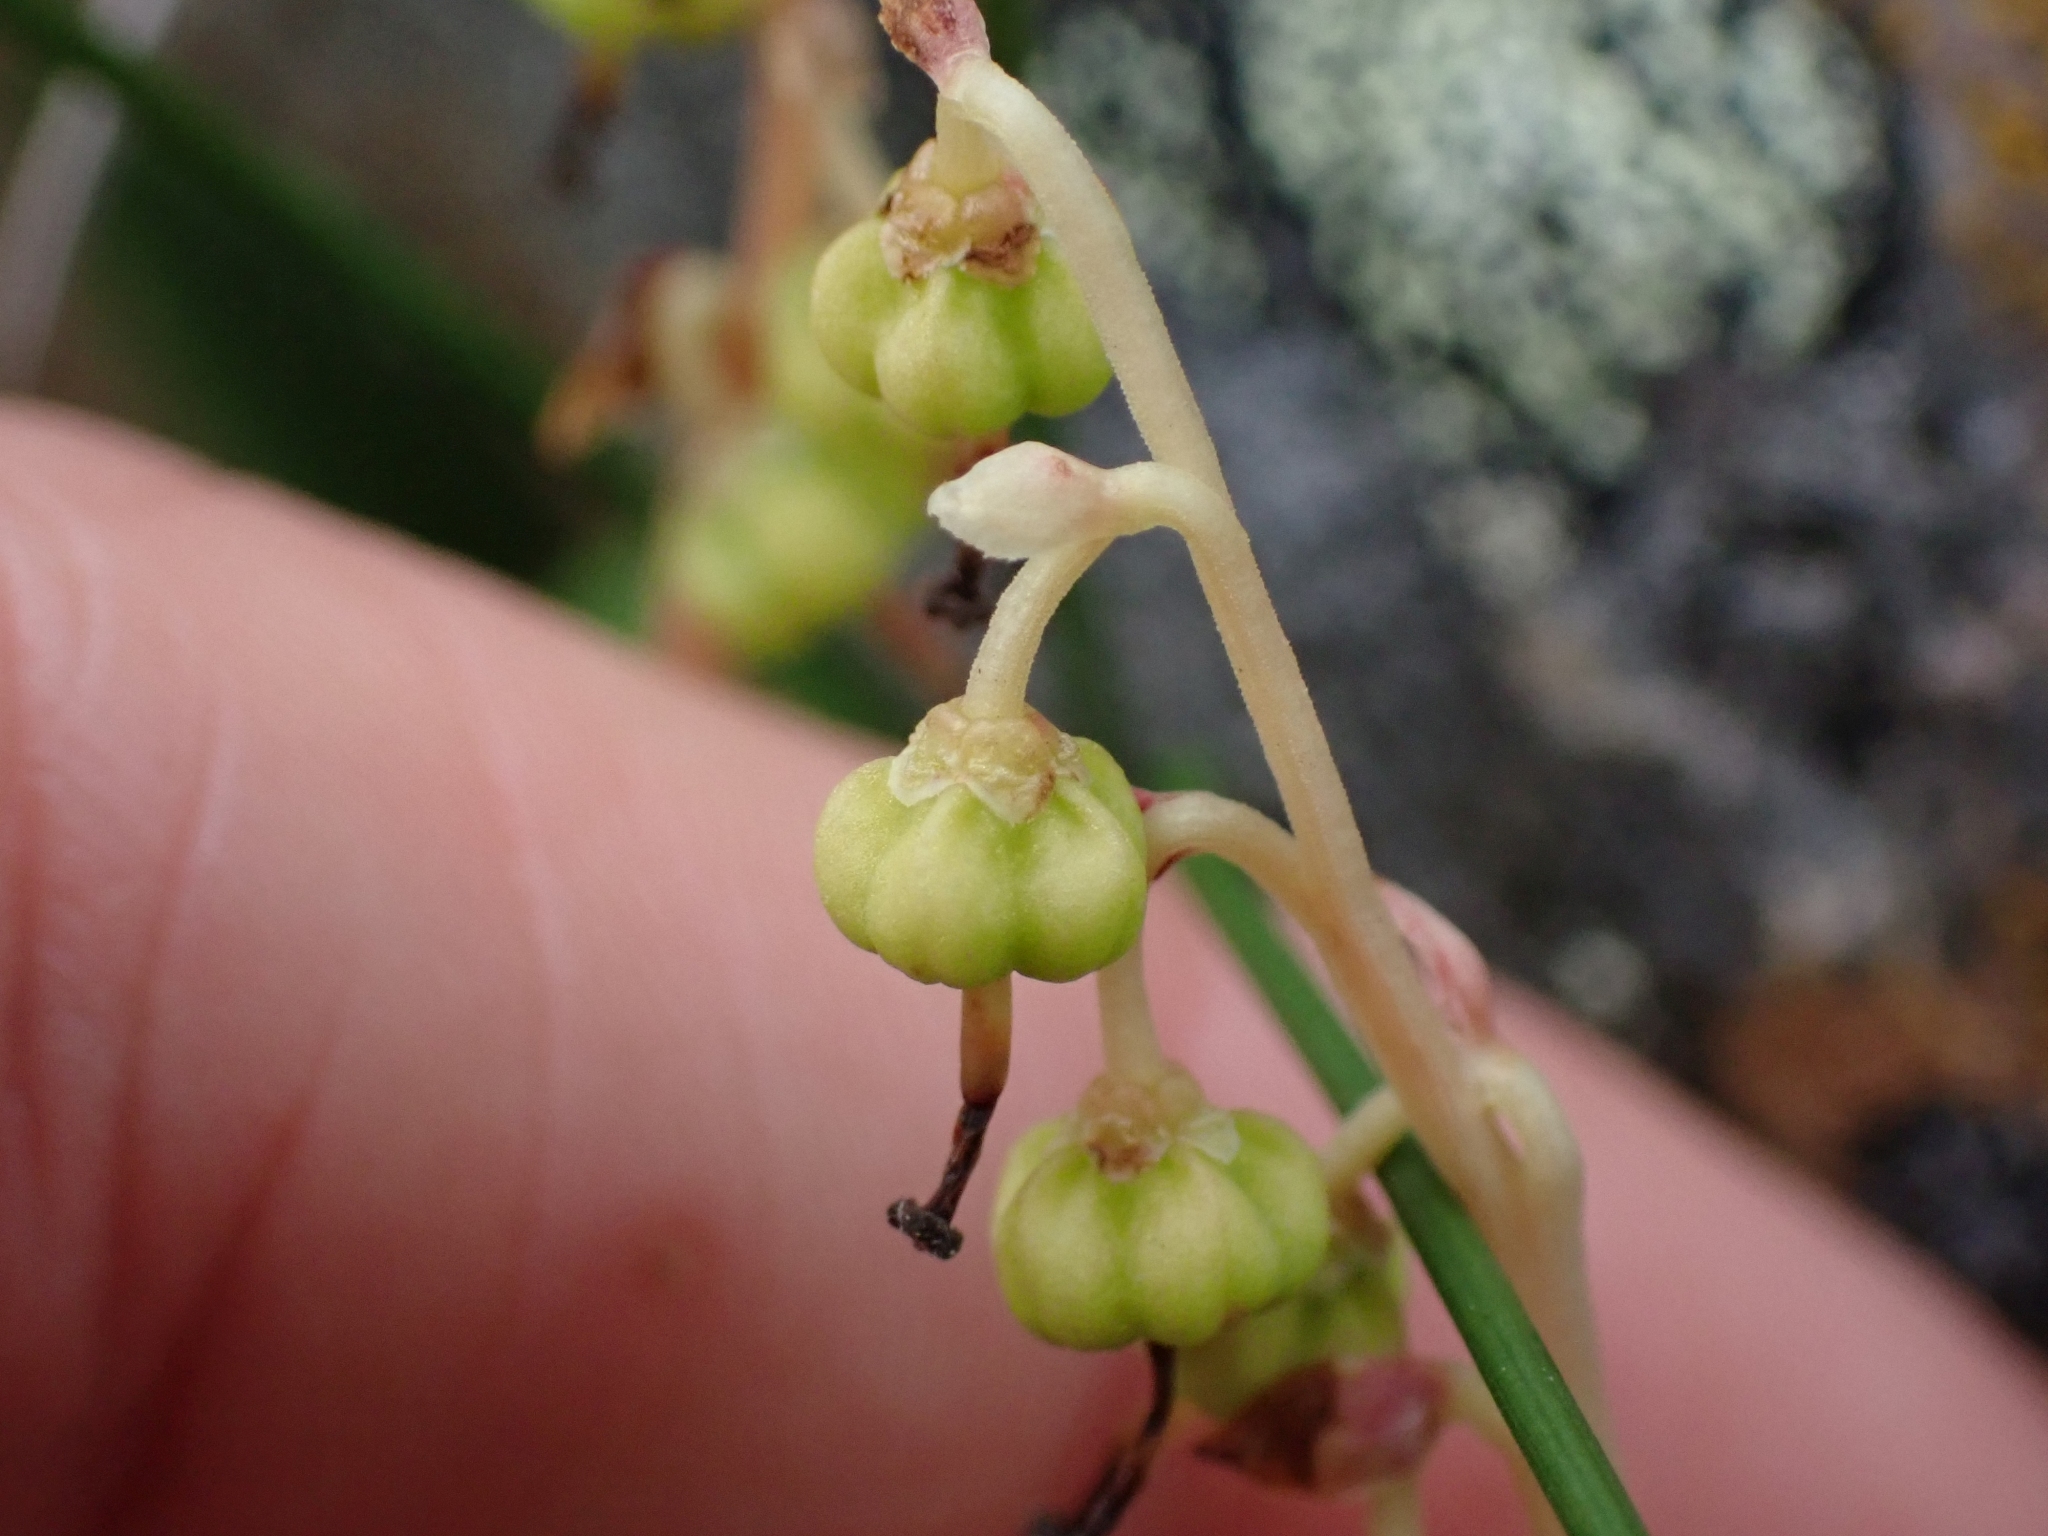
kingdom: Plantae
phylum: Tracheophyta
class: Magnoliopsida
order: Ericales
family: Ericaceae
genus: Orthilia
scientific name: Orthilia secunda
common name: One-sided orthilia
